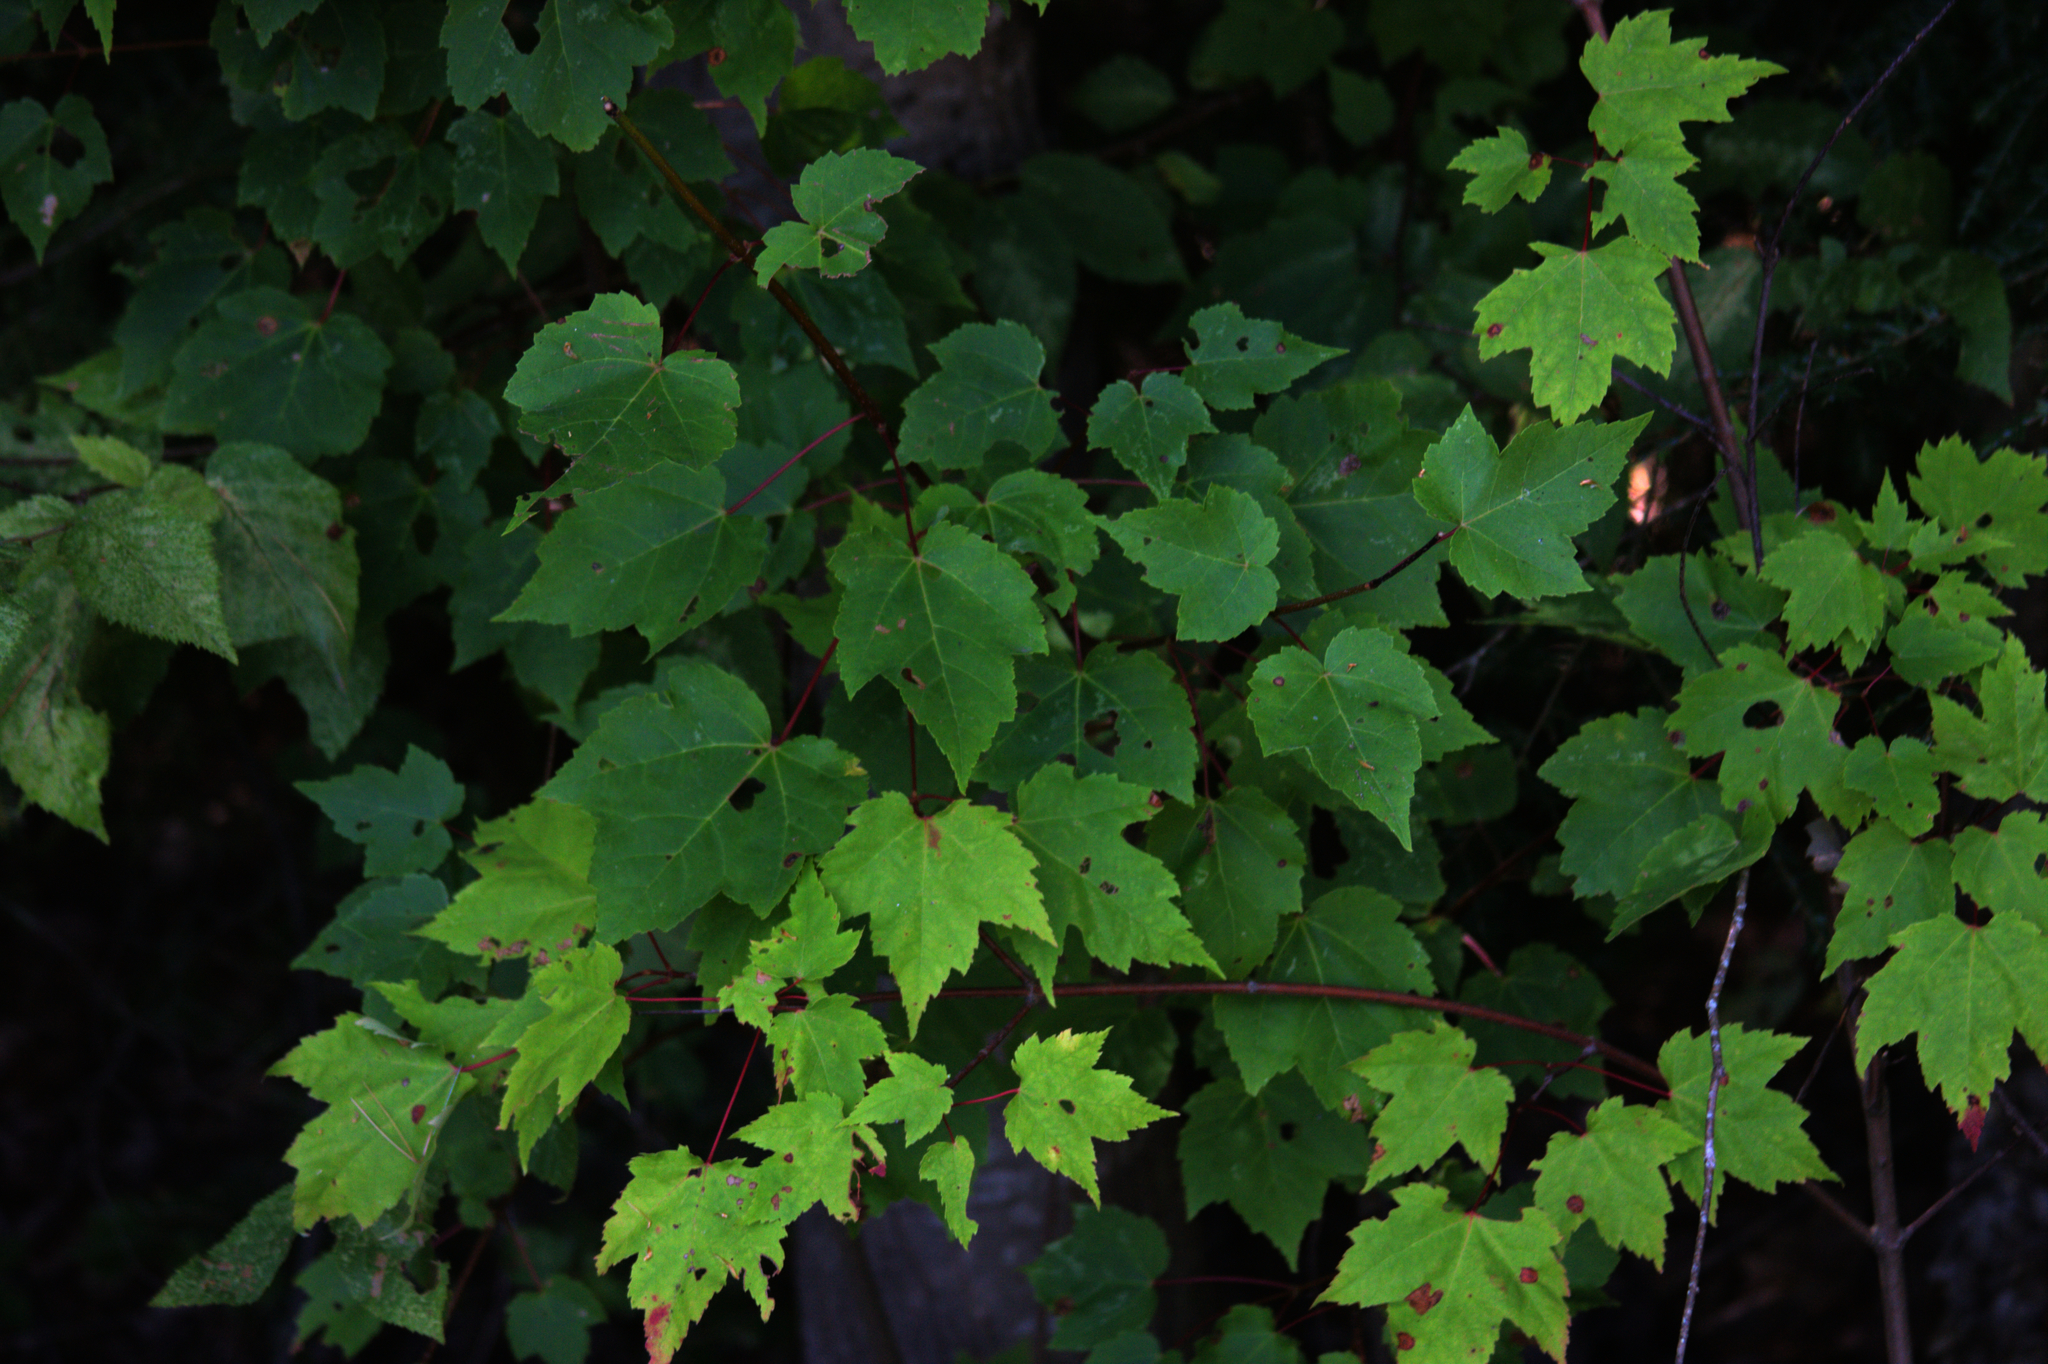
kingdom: Plantae
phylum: Tracheophyta
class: Magnoliopsida
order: Sapindales
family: Sapindaceae
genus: Acer
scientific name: Acer rubrum
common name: Red maple
